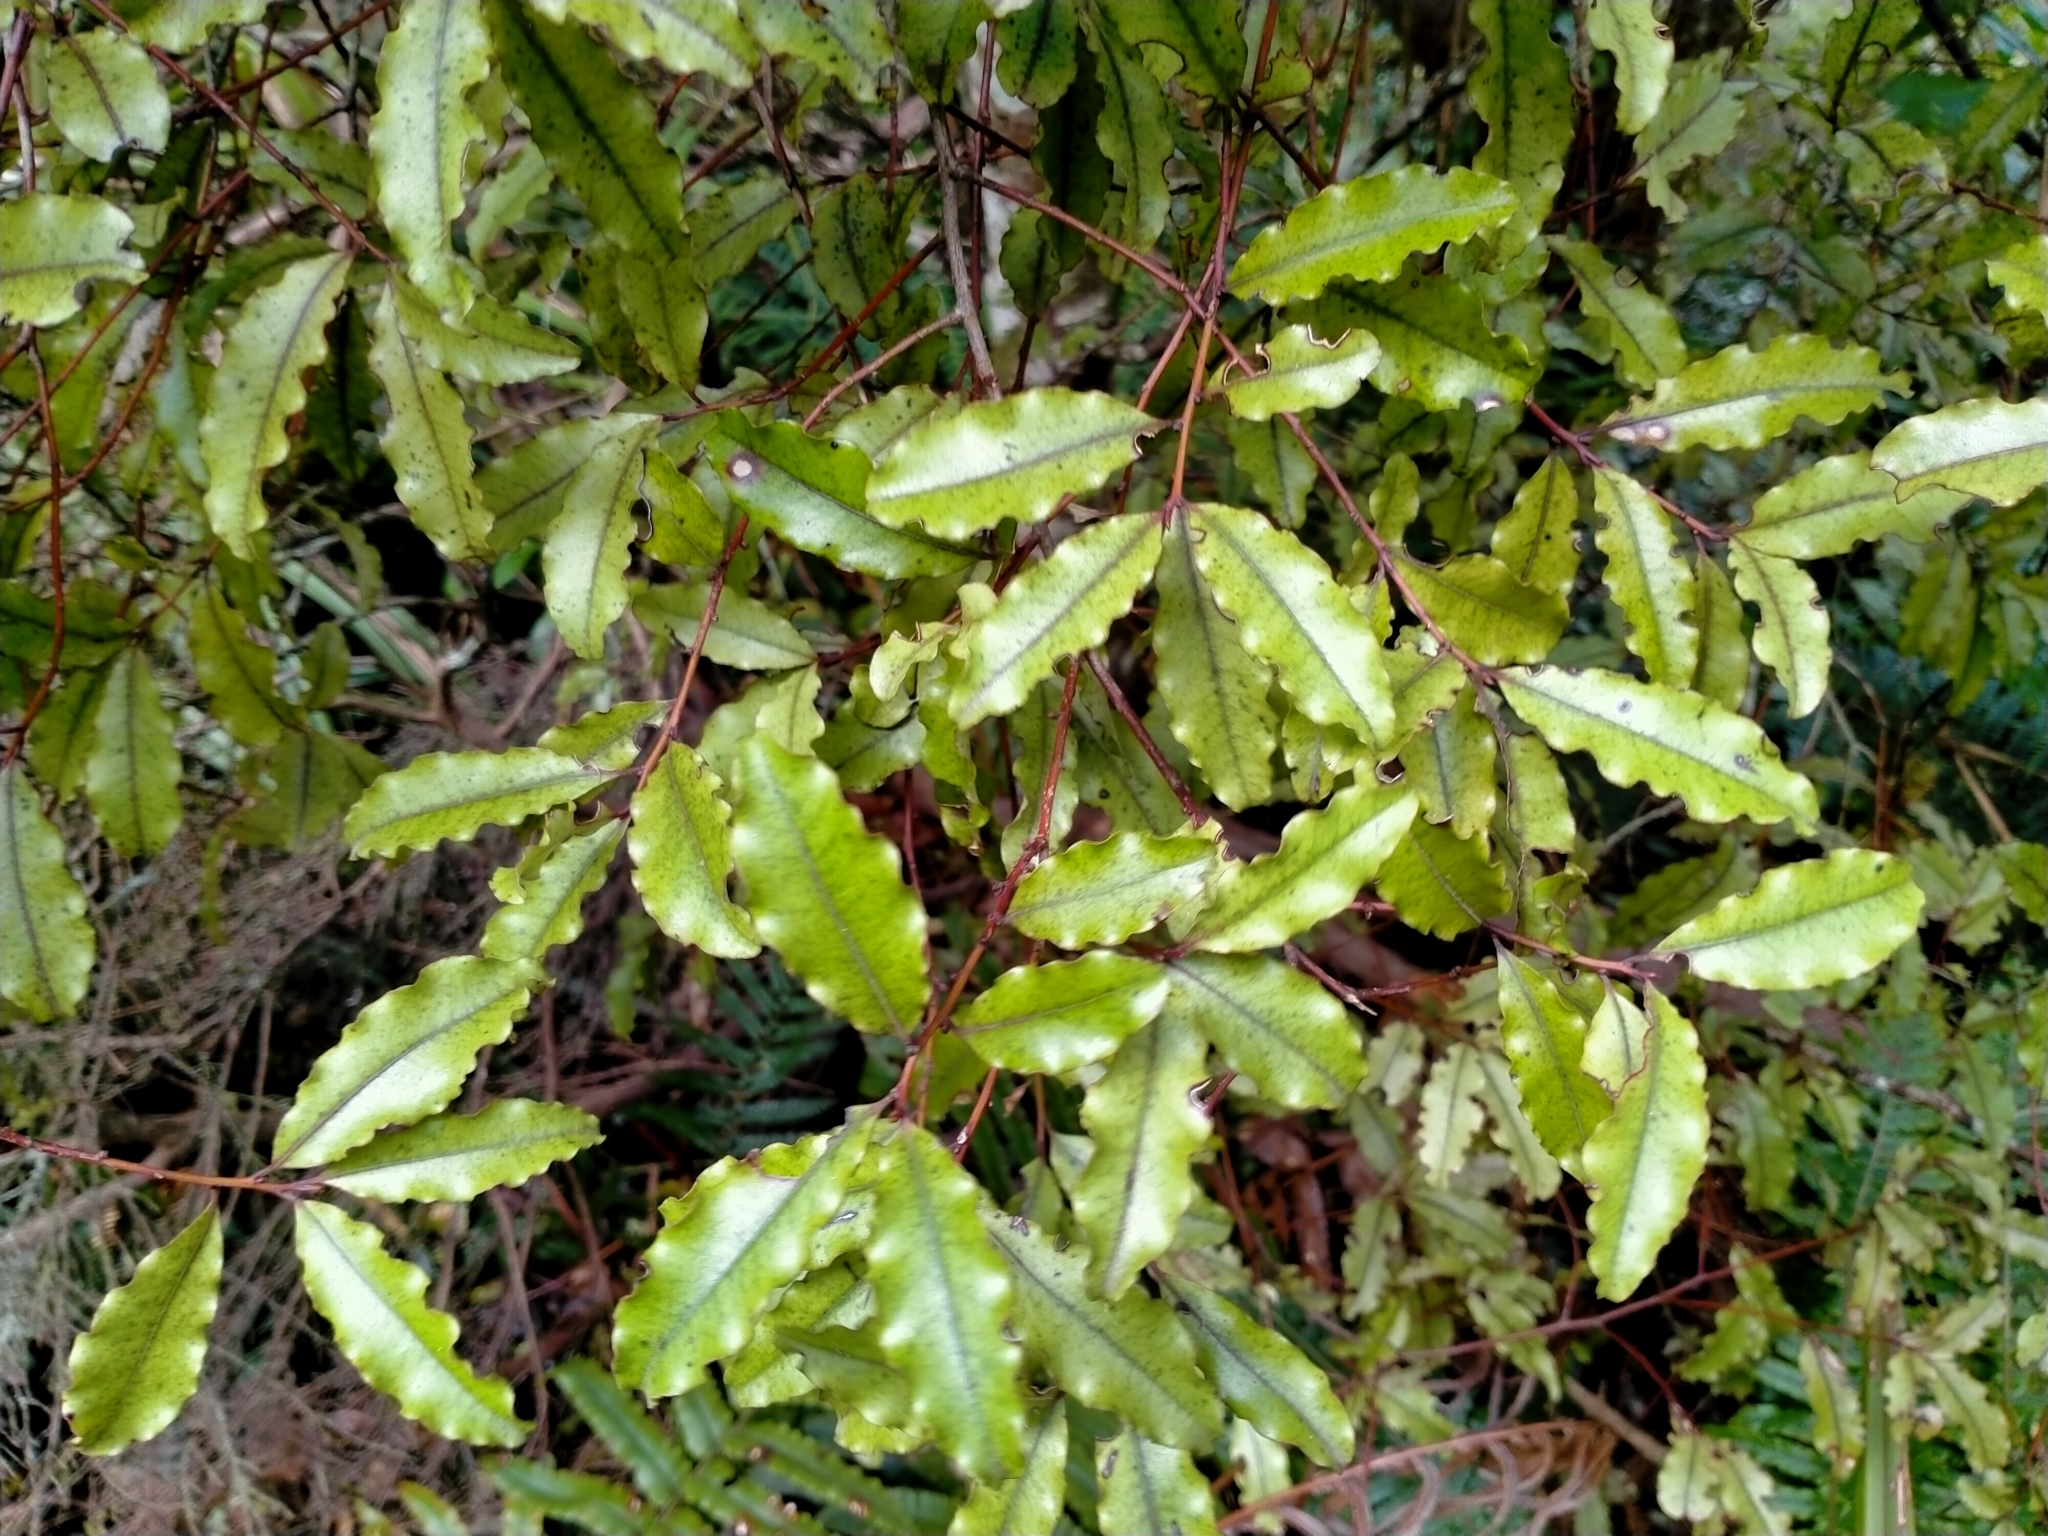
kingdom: Plantae
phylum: Tracheophyta
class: Magnoliopsida
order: Ericales
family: Primulaceae
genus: Myrsine
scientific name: Myrsine australis
